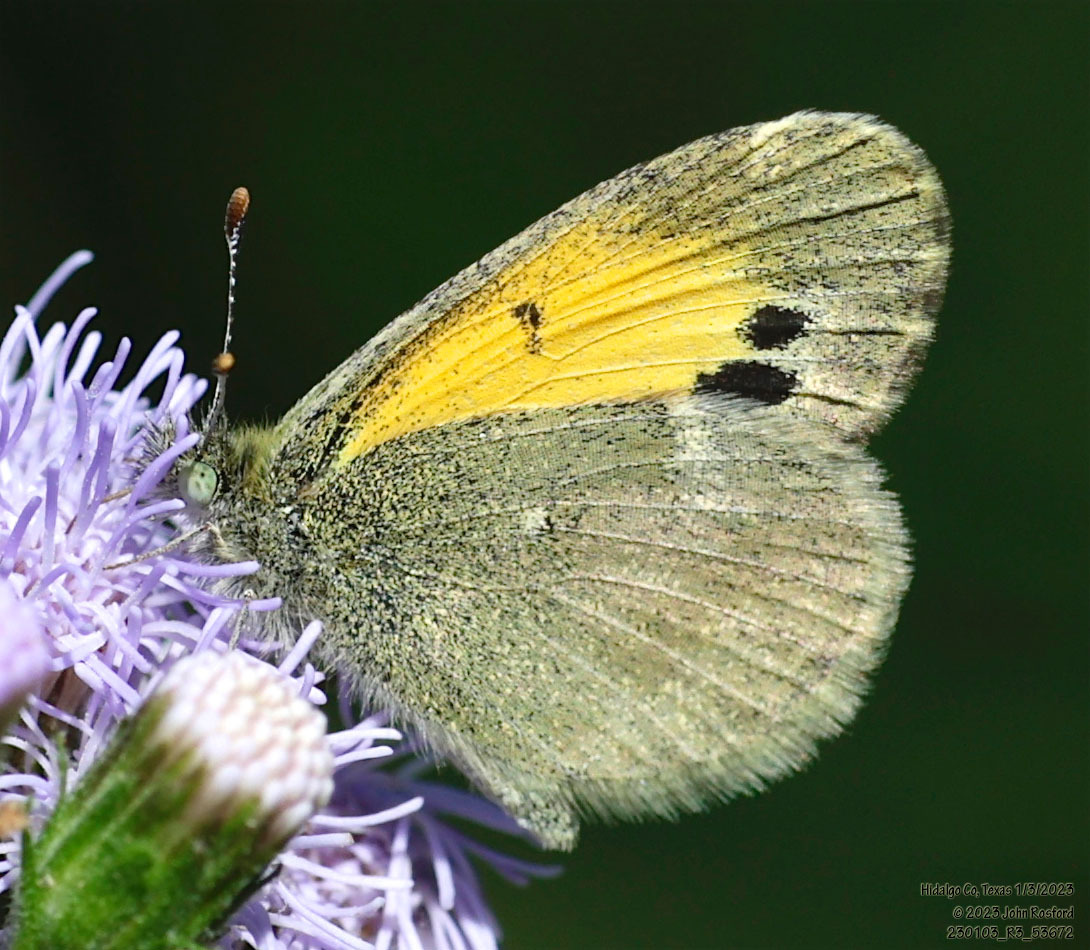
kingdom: Animalia
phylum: Arthropoda
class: Insecta
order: Lepidoptera
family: Pieridae
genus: Nathalis
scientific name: Nathalis iole
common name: Dainty sulphur
